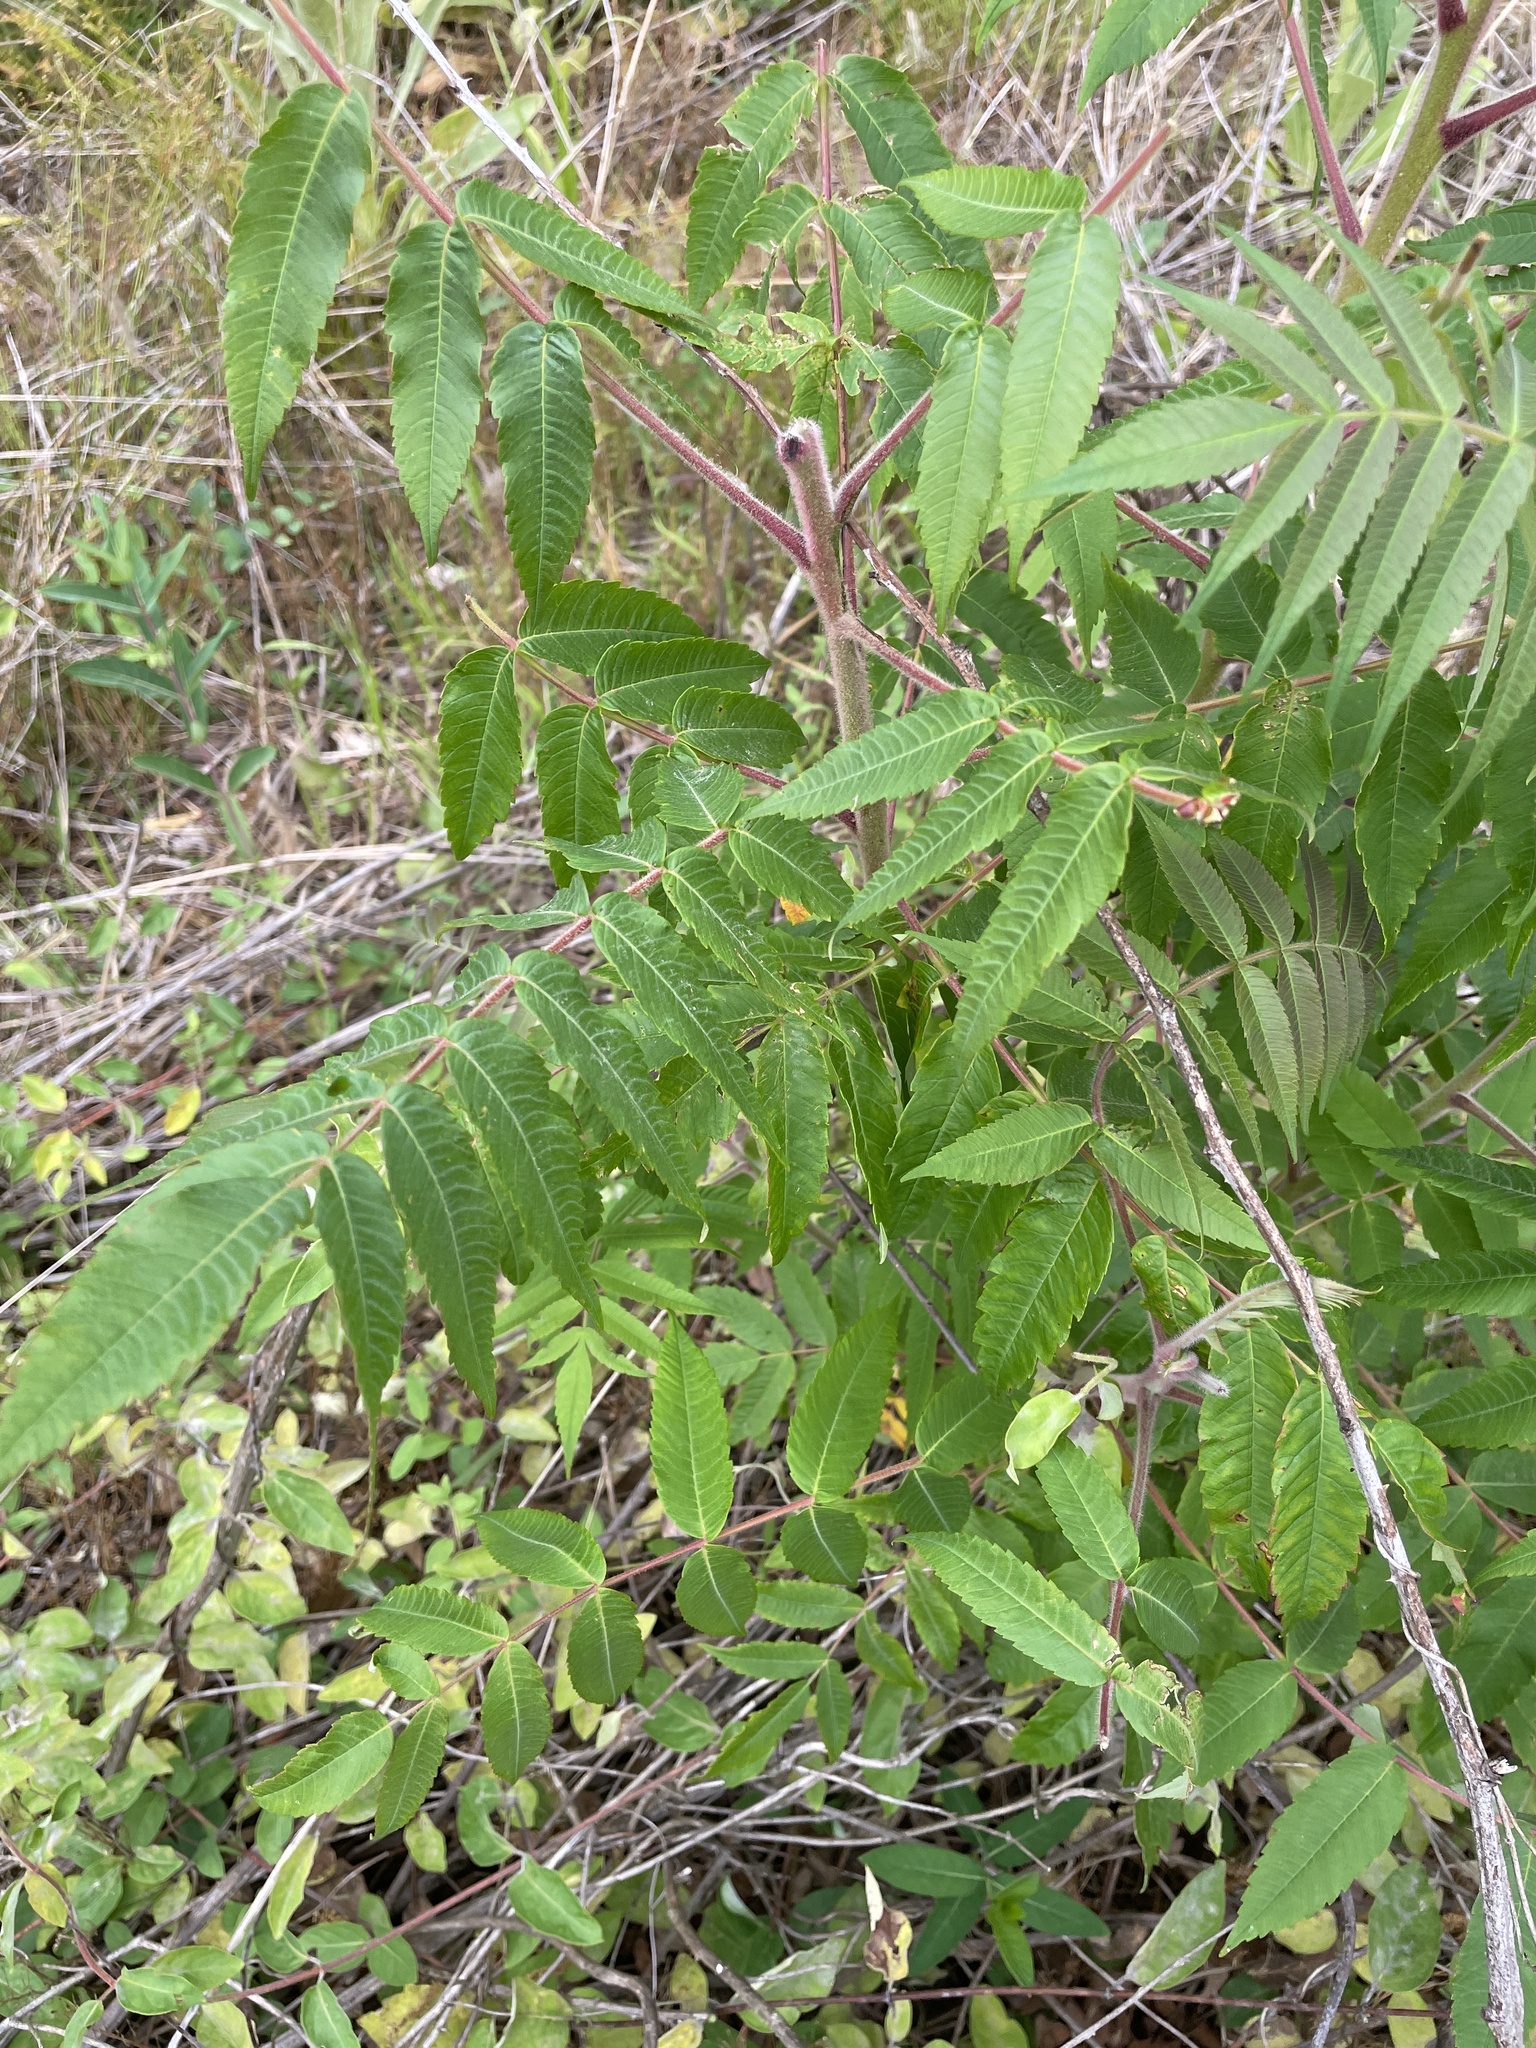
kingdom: Plantae
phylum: Tracheophyta
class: Magnoliopsida
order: Sapindales
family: Anacardiaceae
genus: Rhus
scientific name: Rhus typhina
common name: Staghorn sumac
